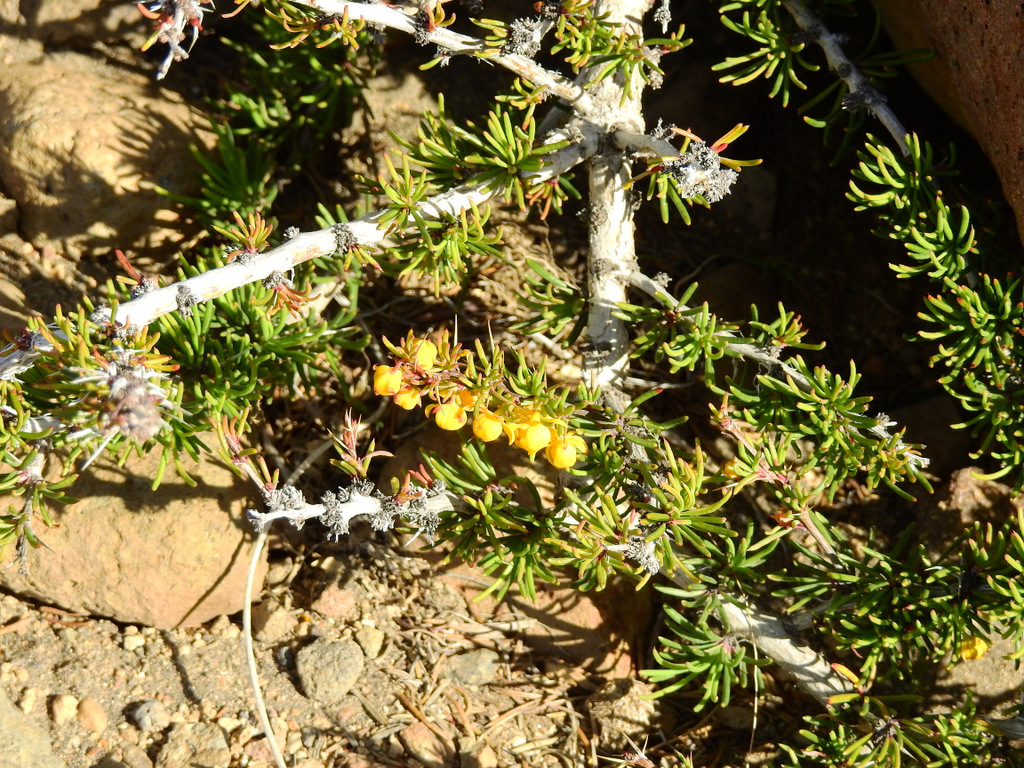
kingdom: Plantae
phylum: Tracheophyta
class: Magnoliopsida
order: Ranunculales
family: Berberidaceae
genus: Berberis
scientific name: Berberis empetrifolia
